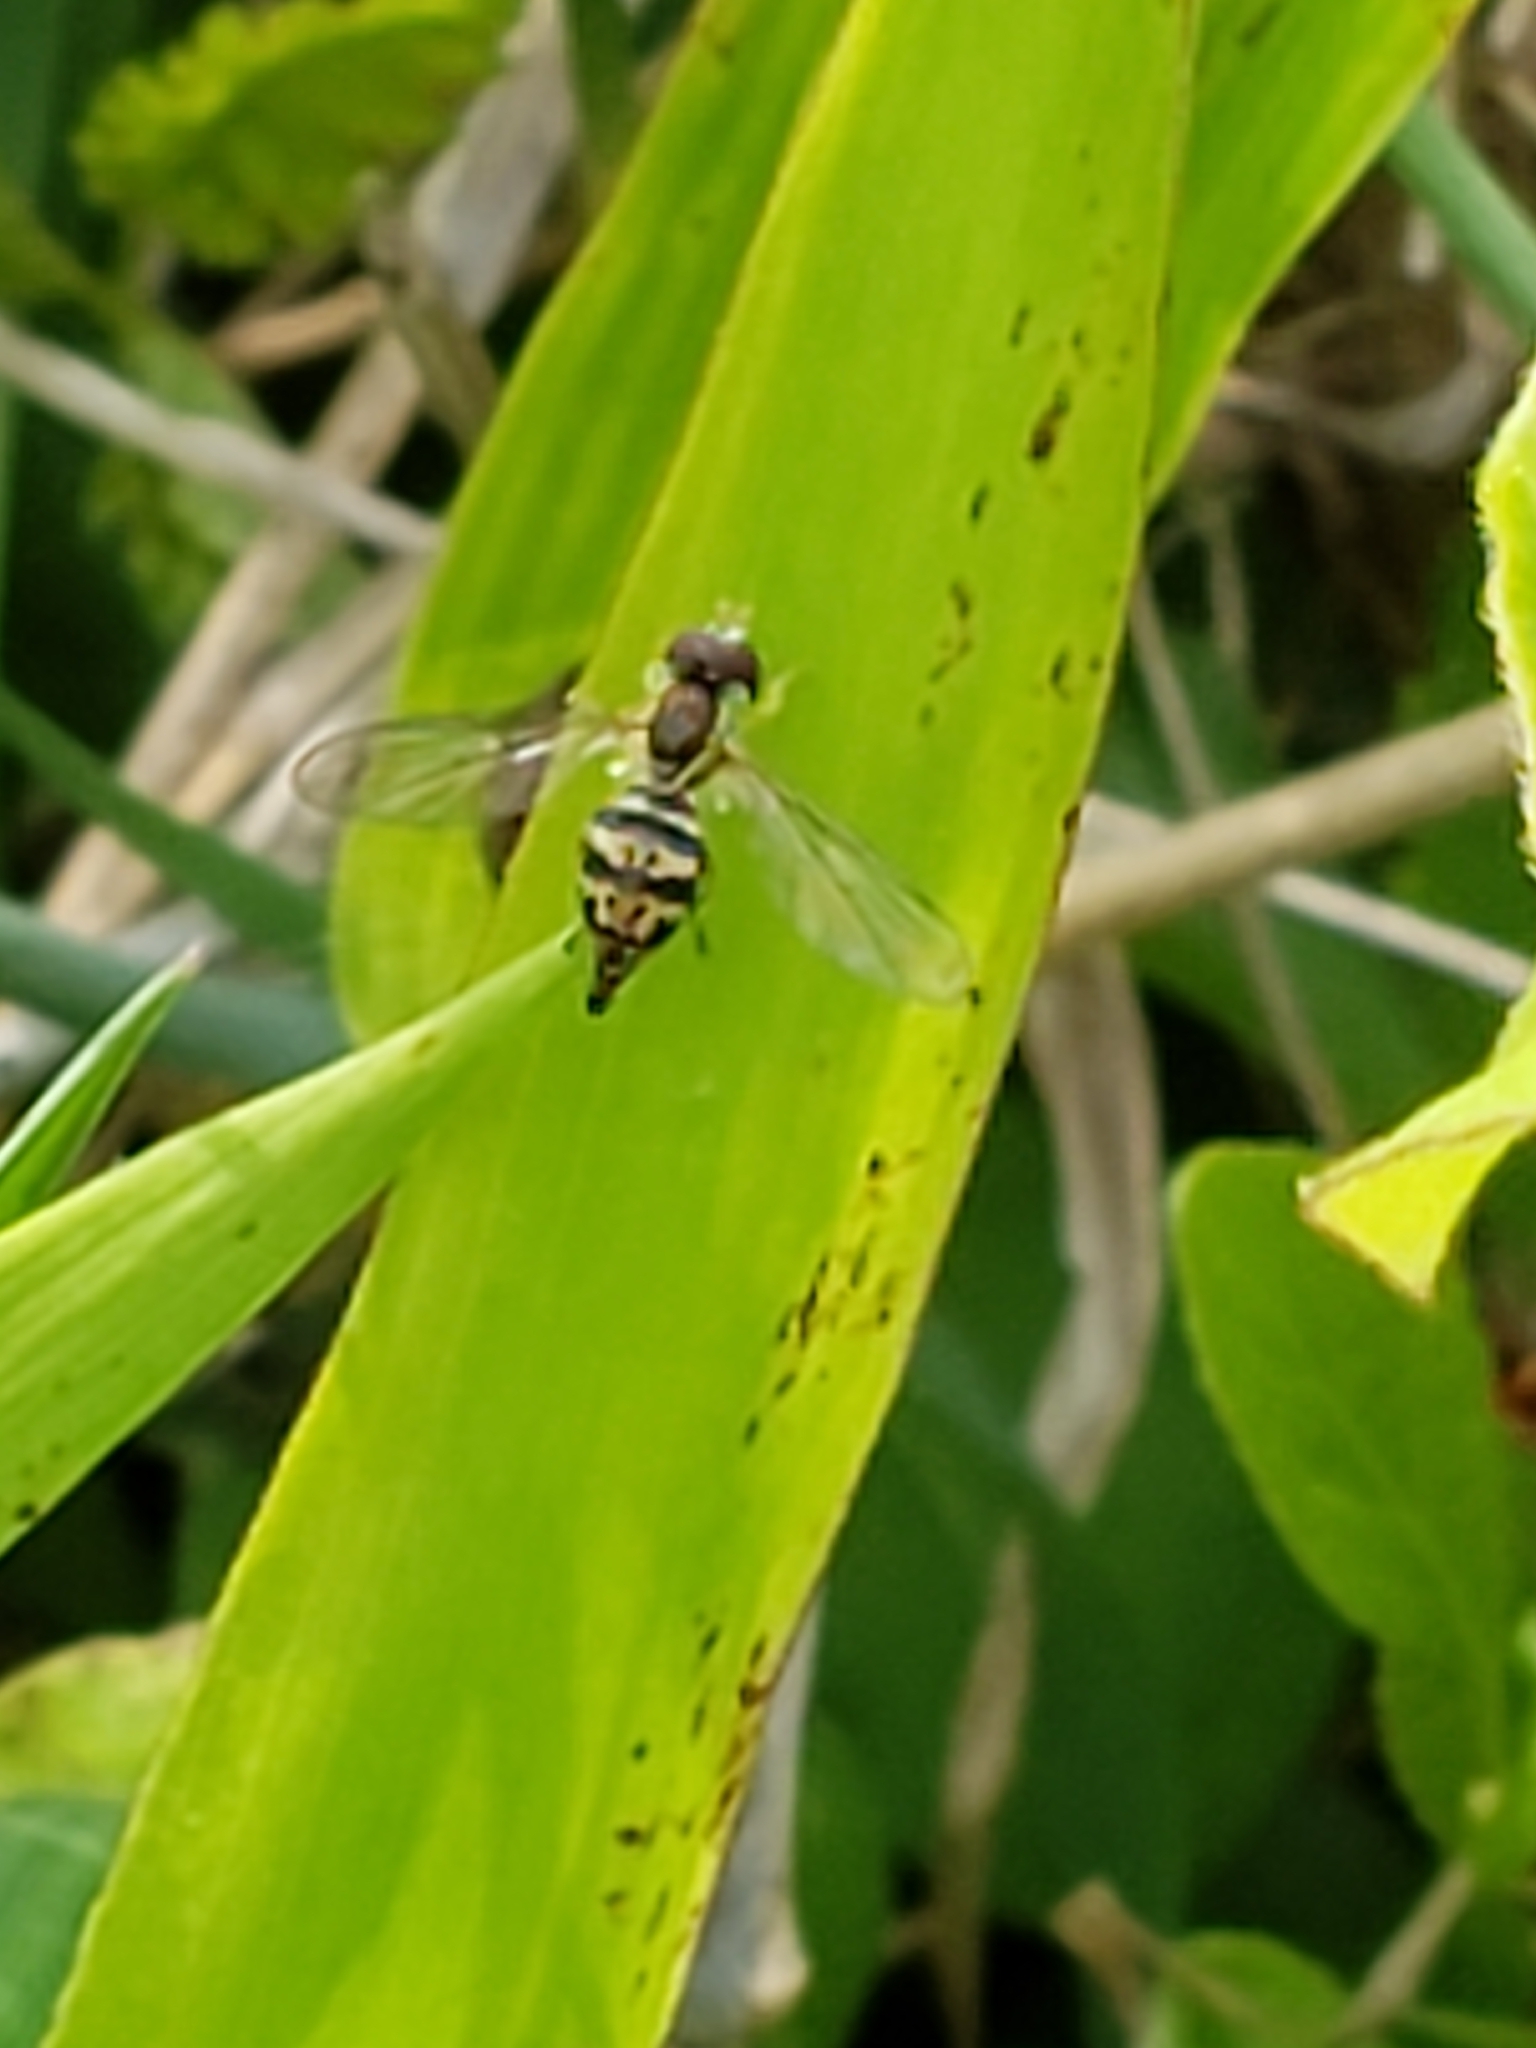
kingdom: Animalia
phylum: Arthropoda
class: Insecta
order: Diptera
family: Syrphidae
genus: Toxomerus
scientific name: Toxomerus geminatus
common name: Eastern calligrapher
